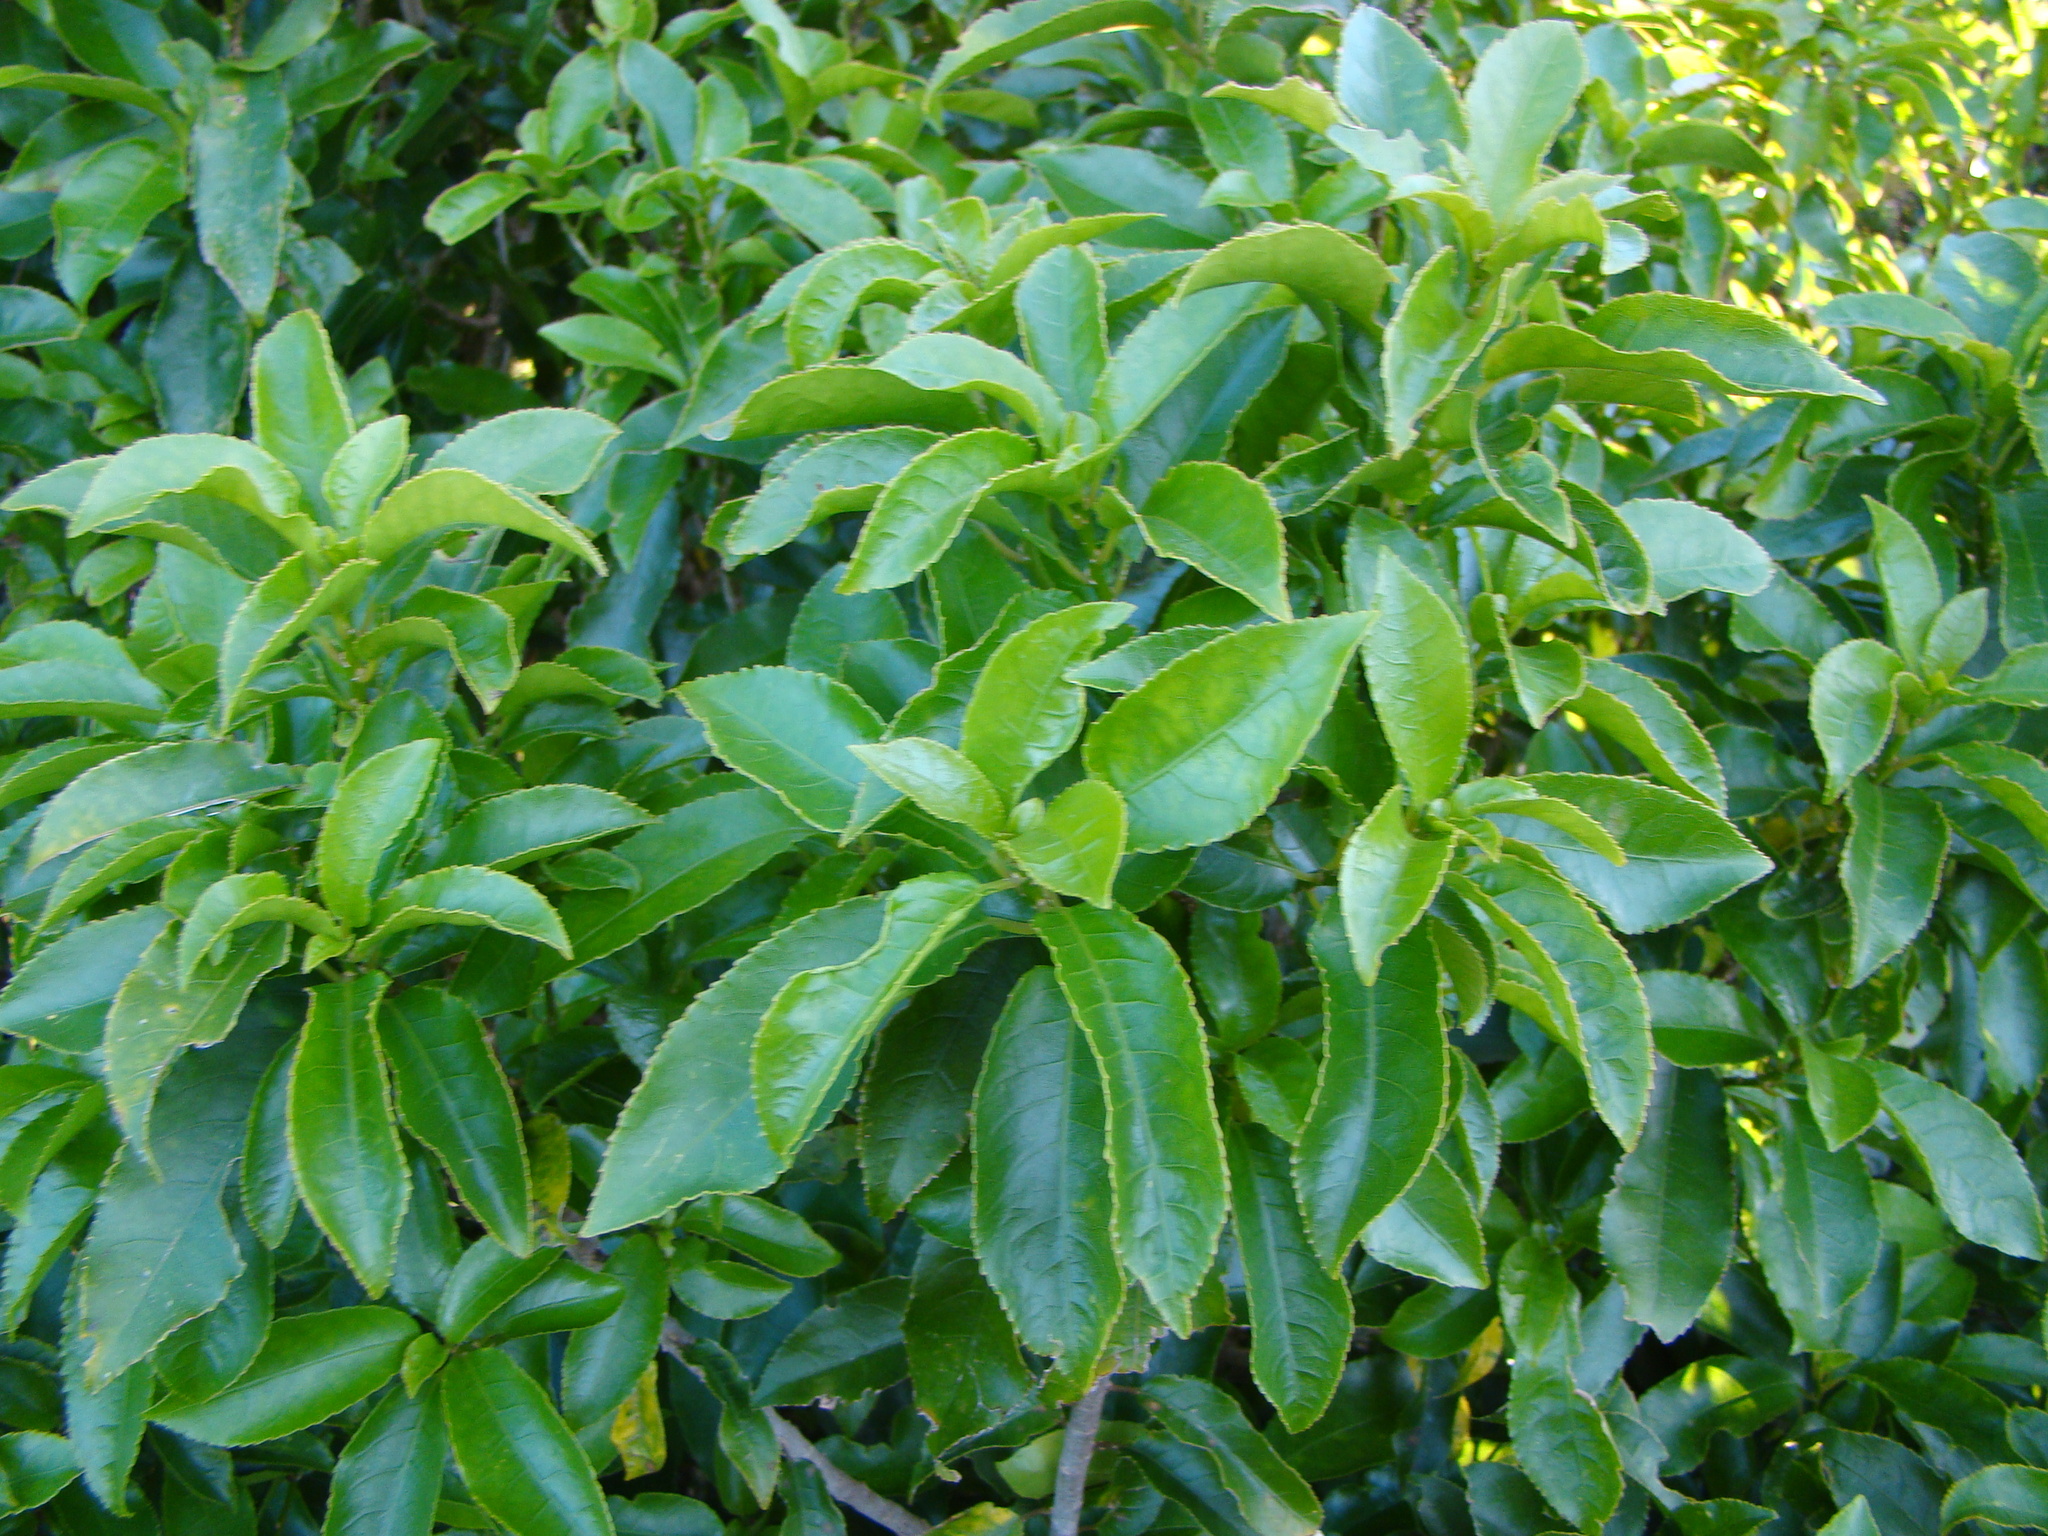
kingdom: Plantae
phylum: Tracheophyta
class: Magnoliopsida
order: Malpighiales
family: Violaceae
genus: Melicytus
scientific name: Melicytus ramiflorus
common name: Mahoe
